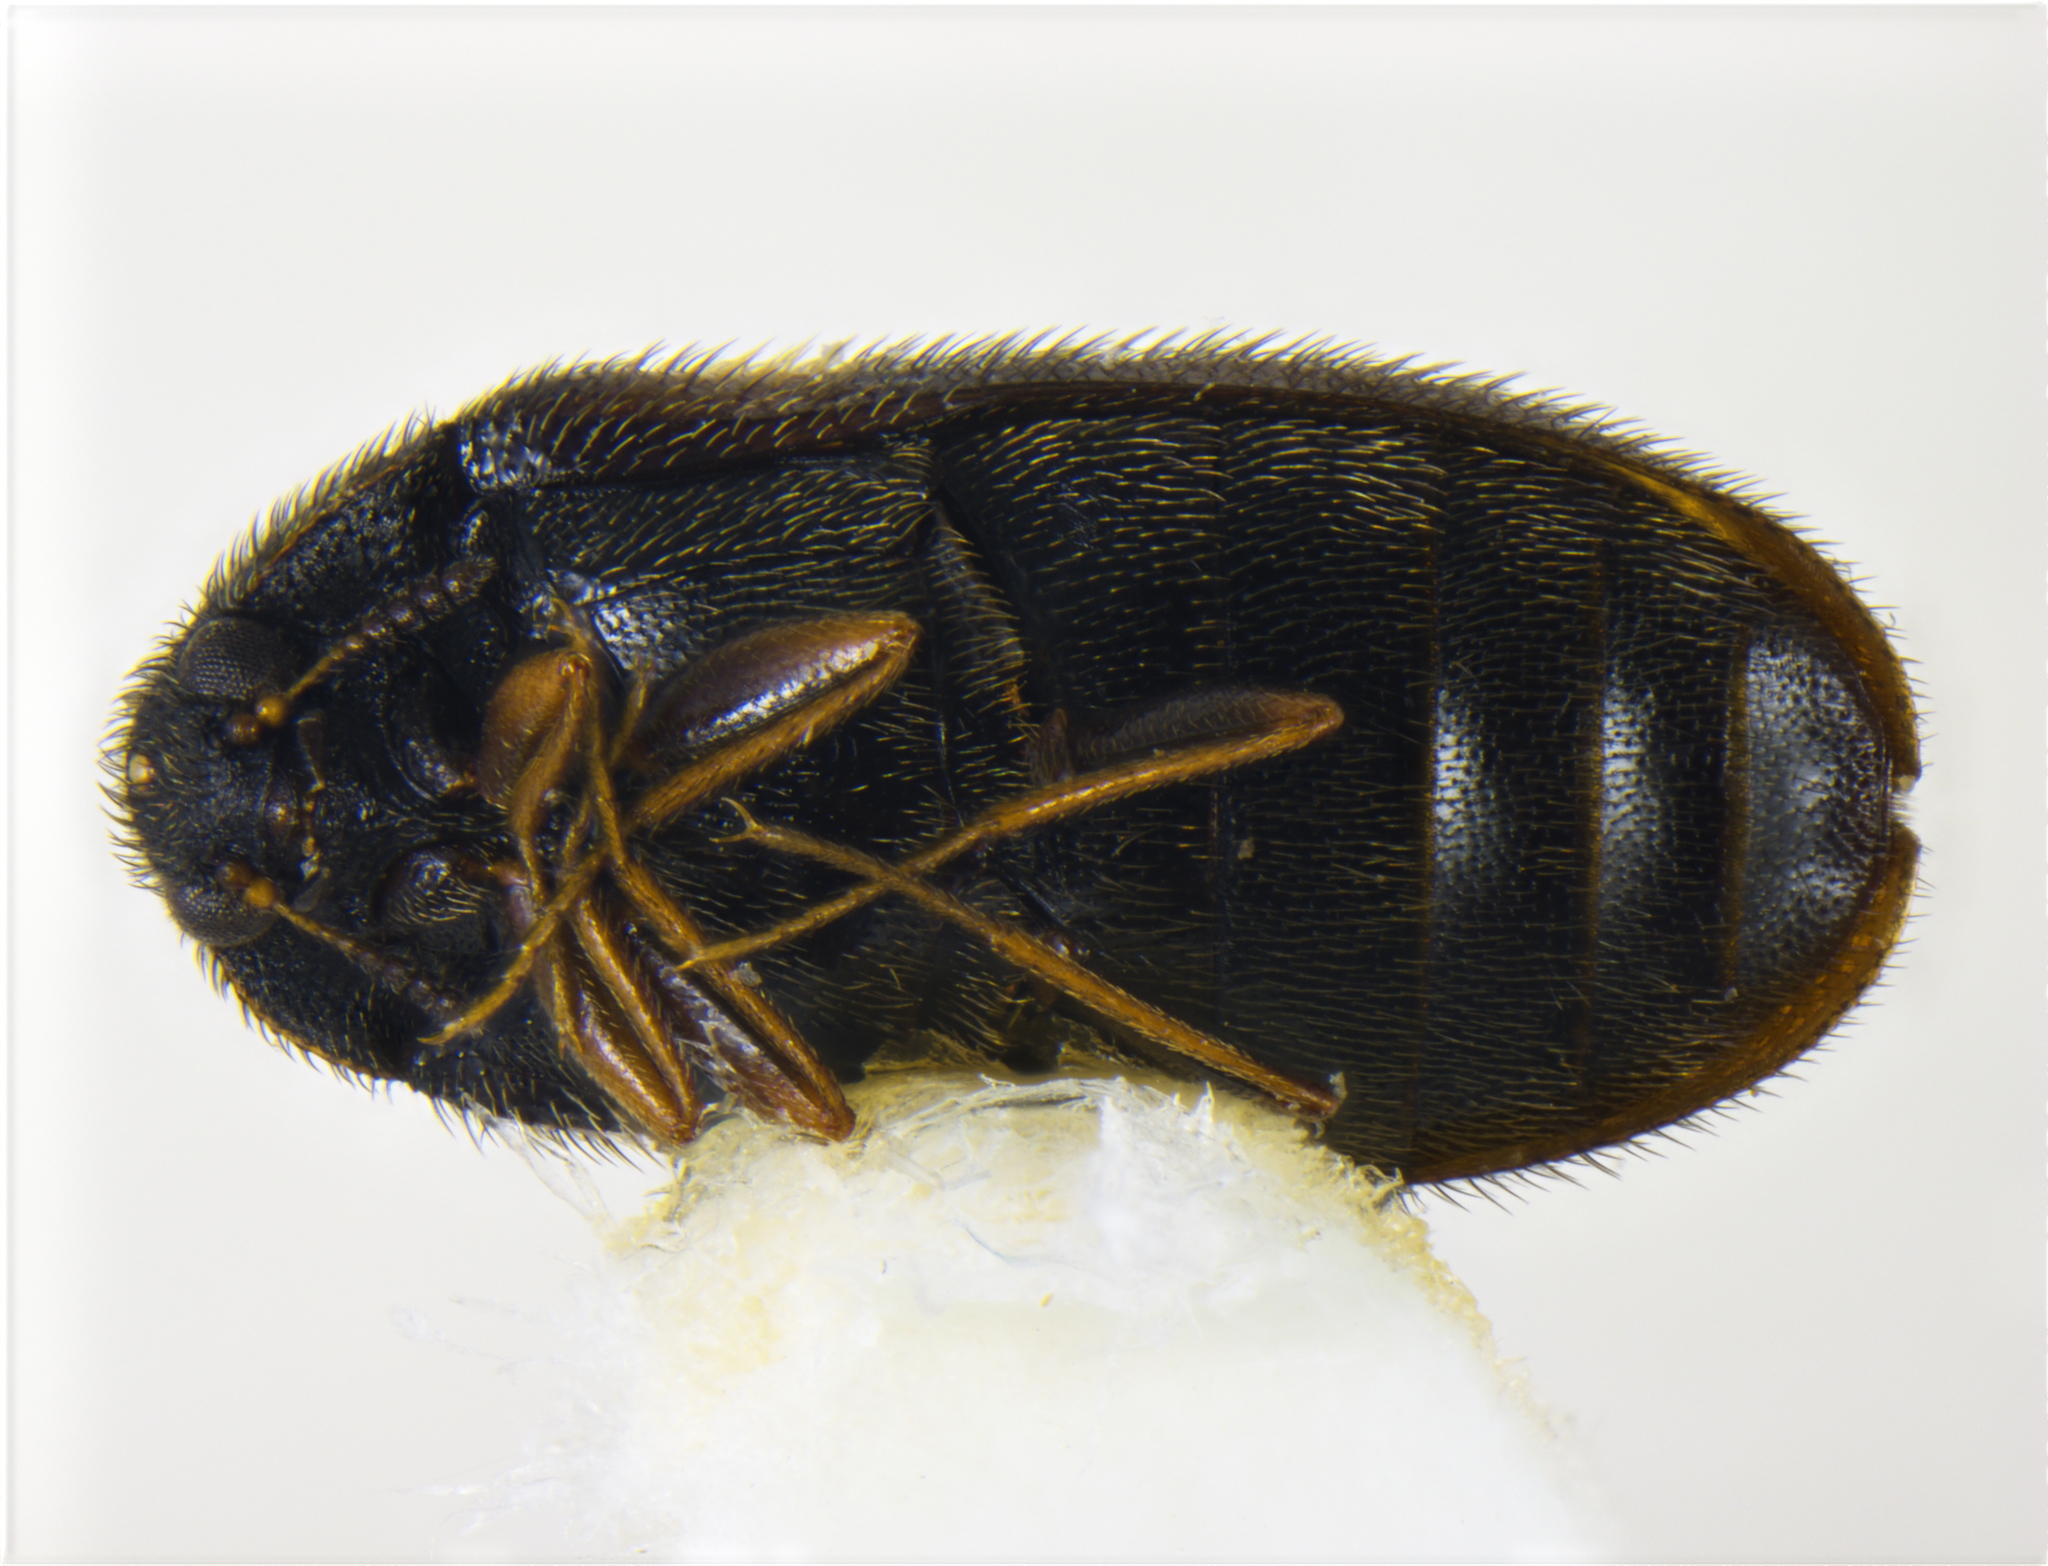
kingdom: Animalia
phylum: Arthropoda
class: Insecta
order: Coleoptera
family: Dermestidae
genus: Reesa
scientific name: Reesa vespulae
